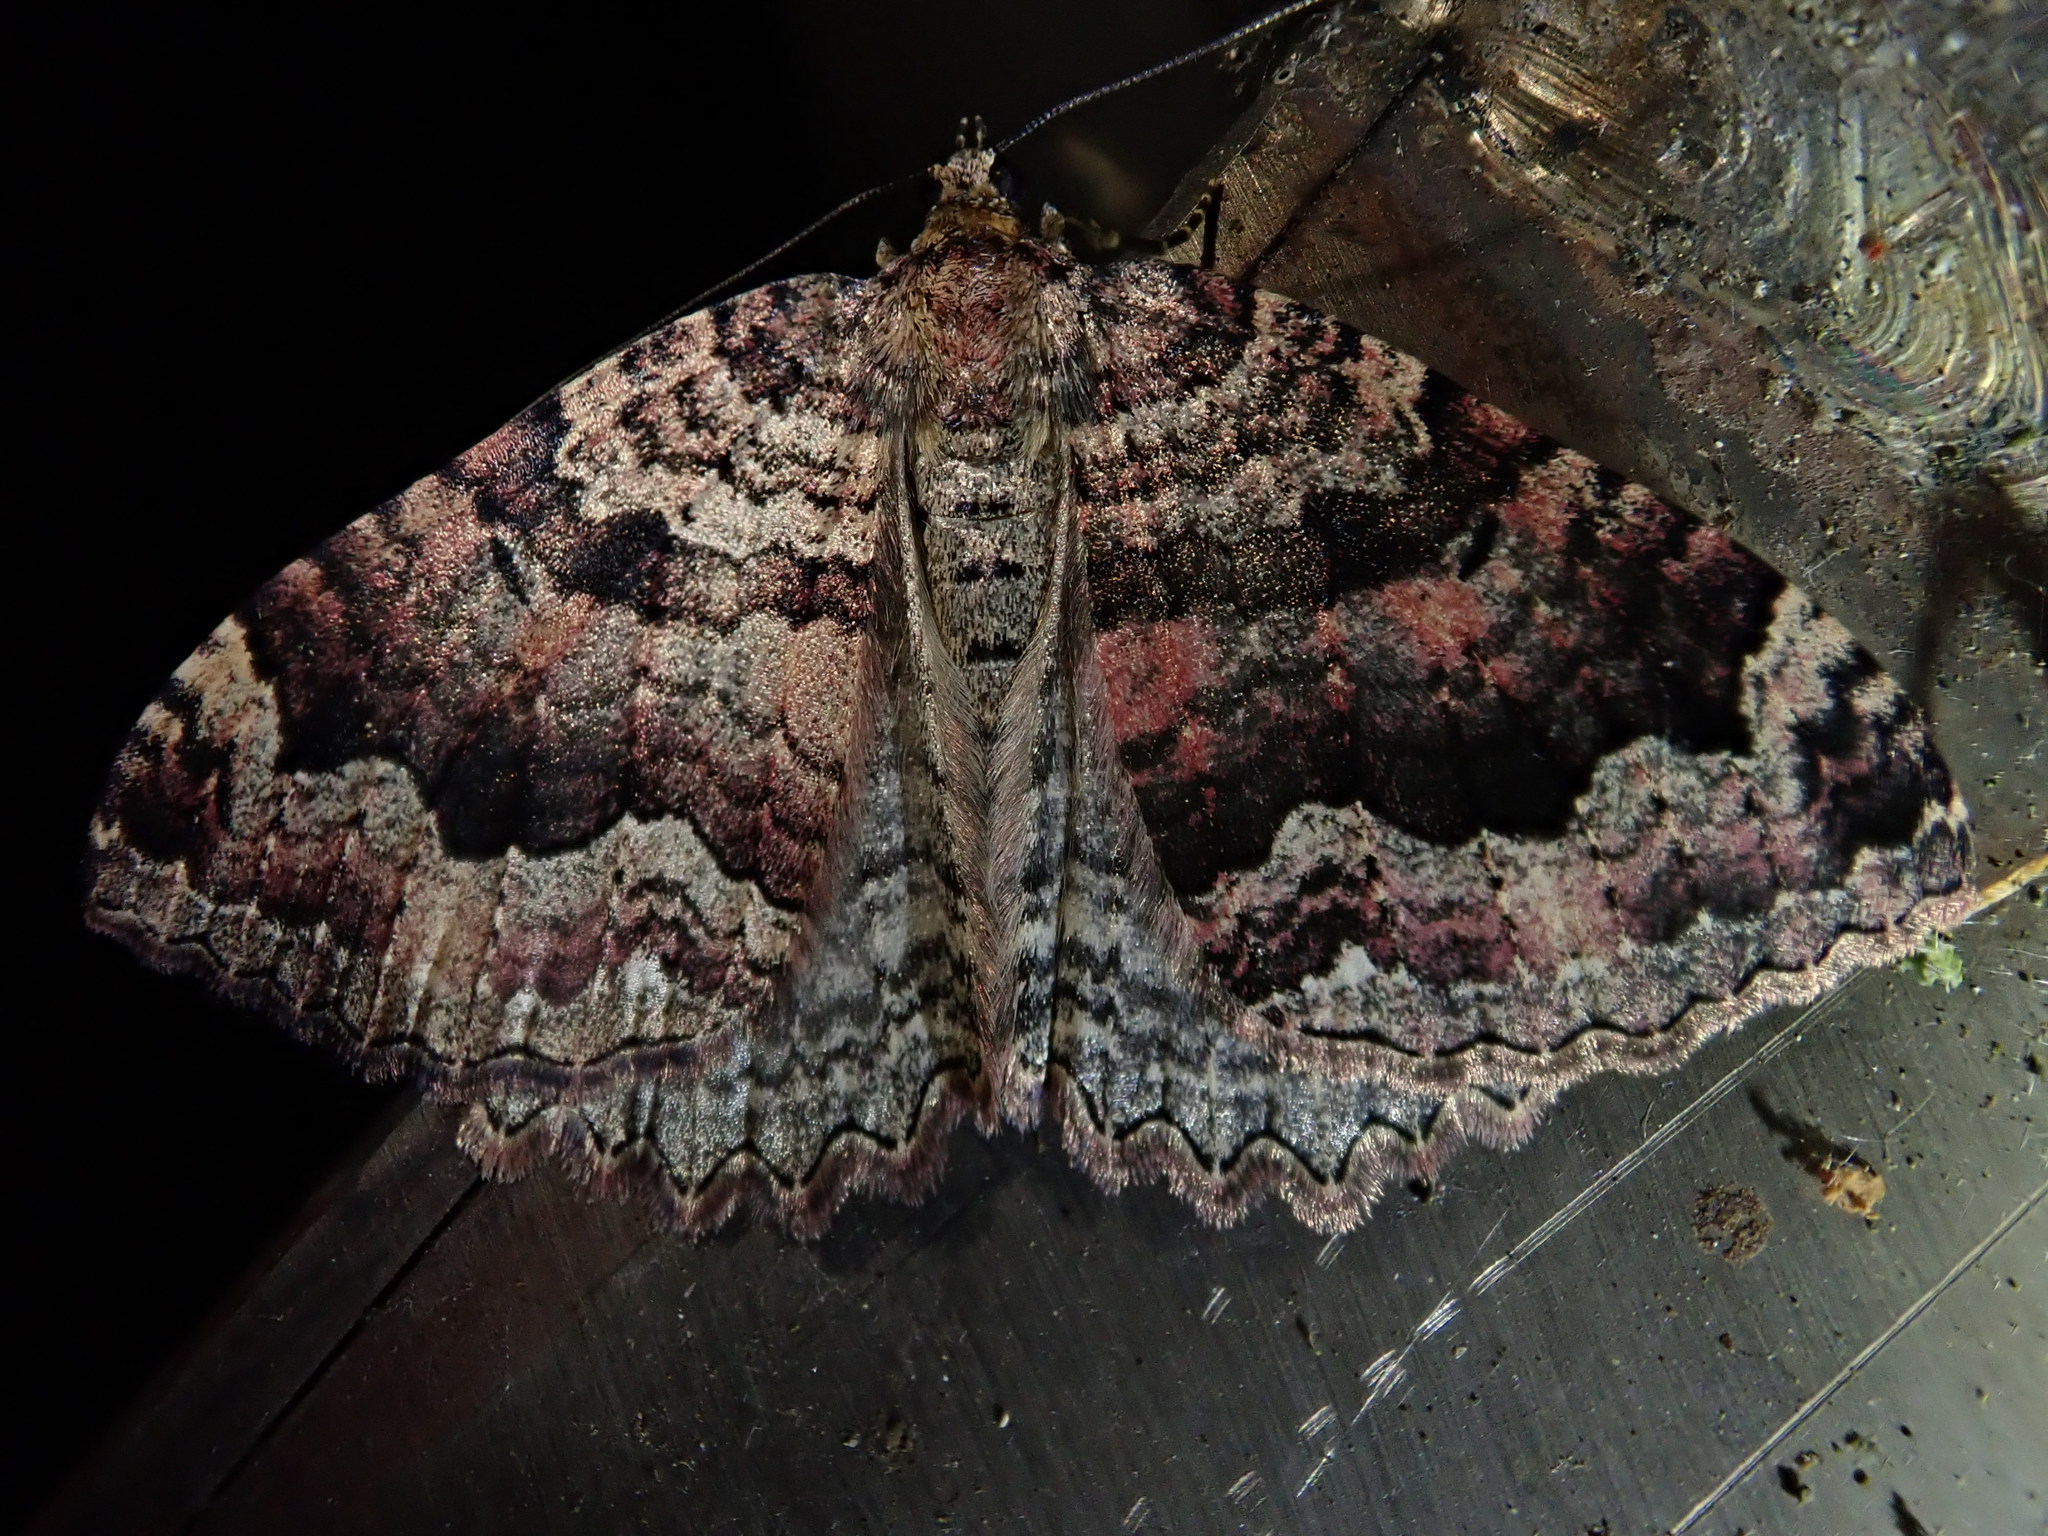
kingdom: Animalia
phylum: Arthropoda
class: Insecta
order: Lepidoptera
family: Geometridae
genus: Triphosa
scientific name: Triphosa dubitata
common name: Tissue
